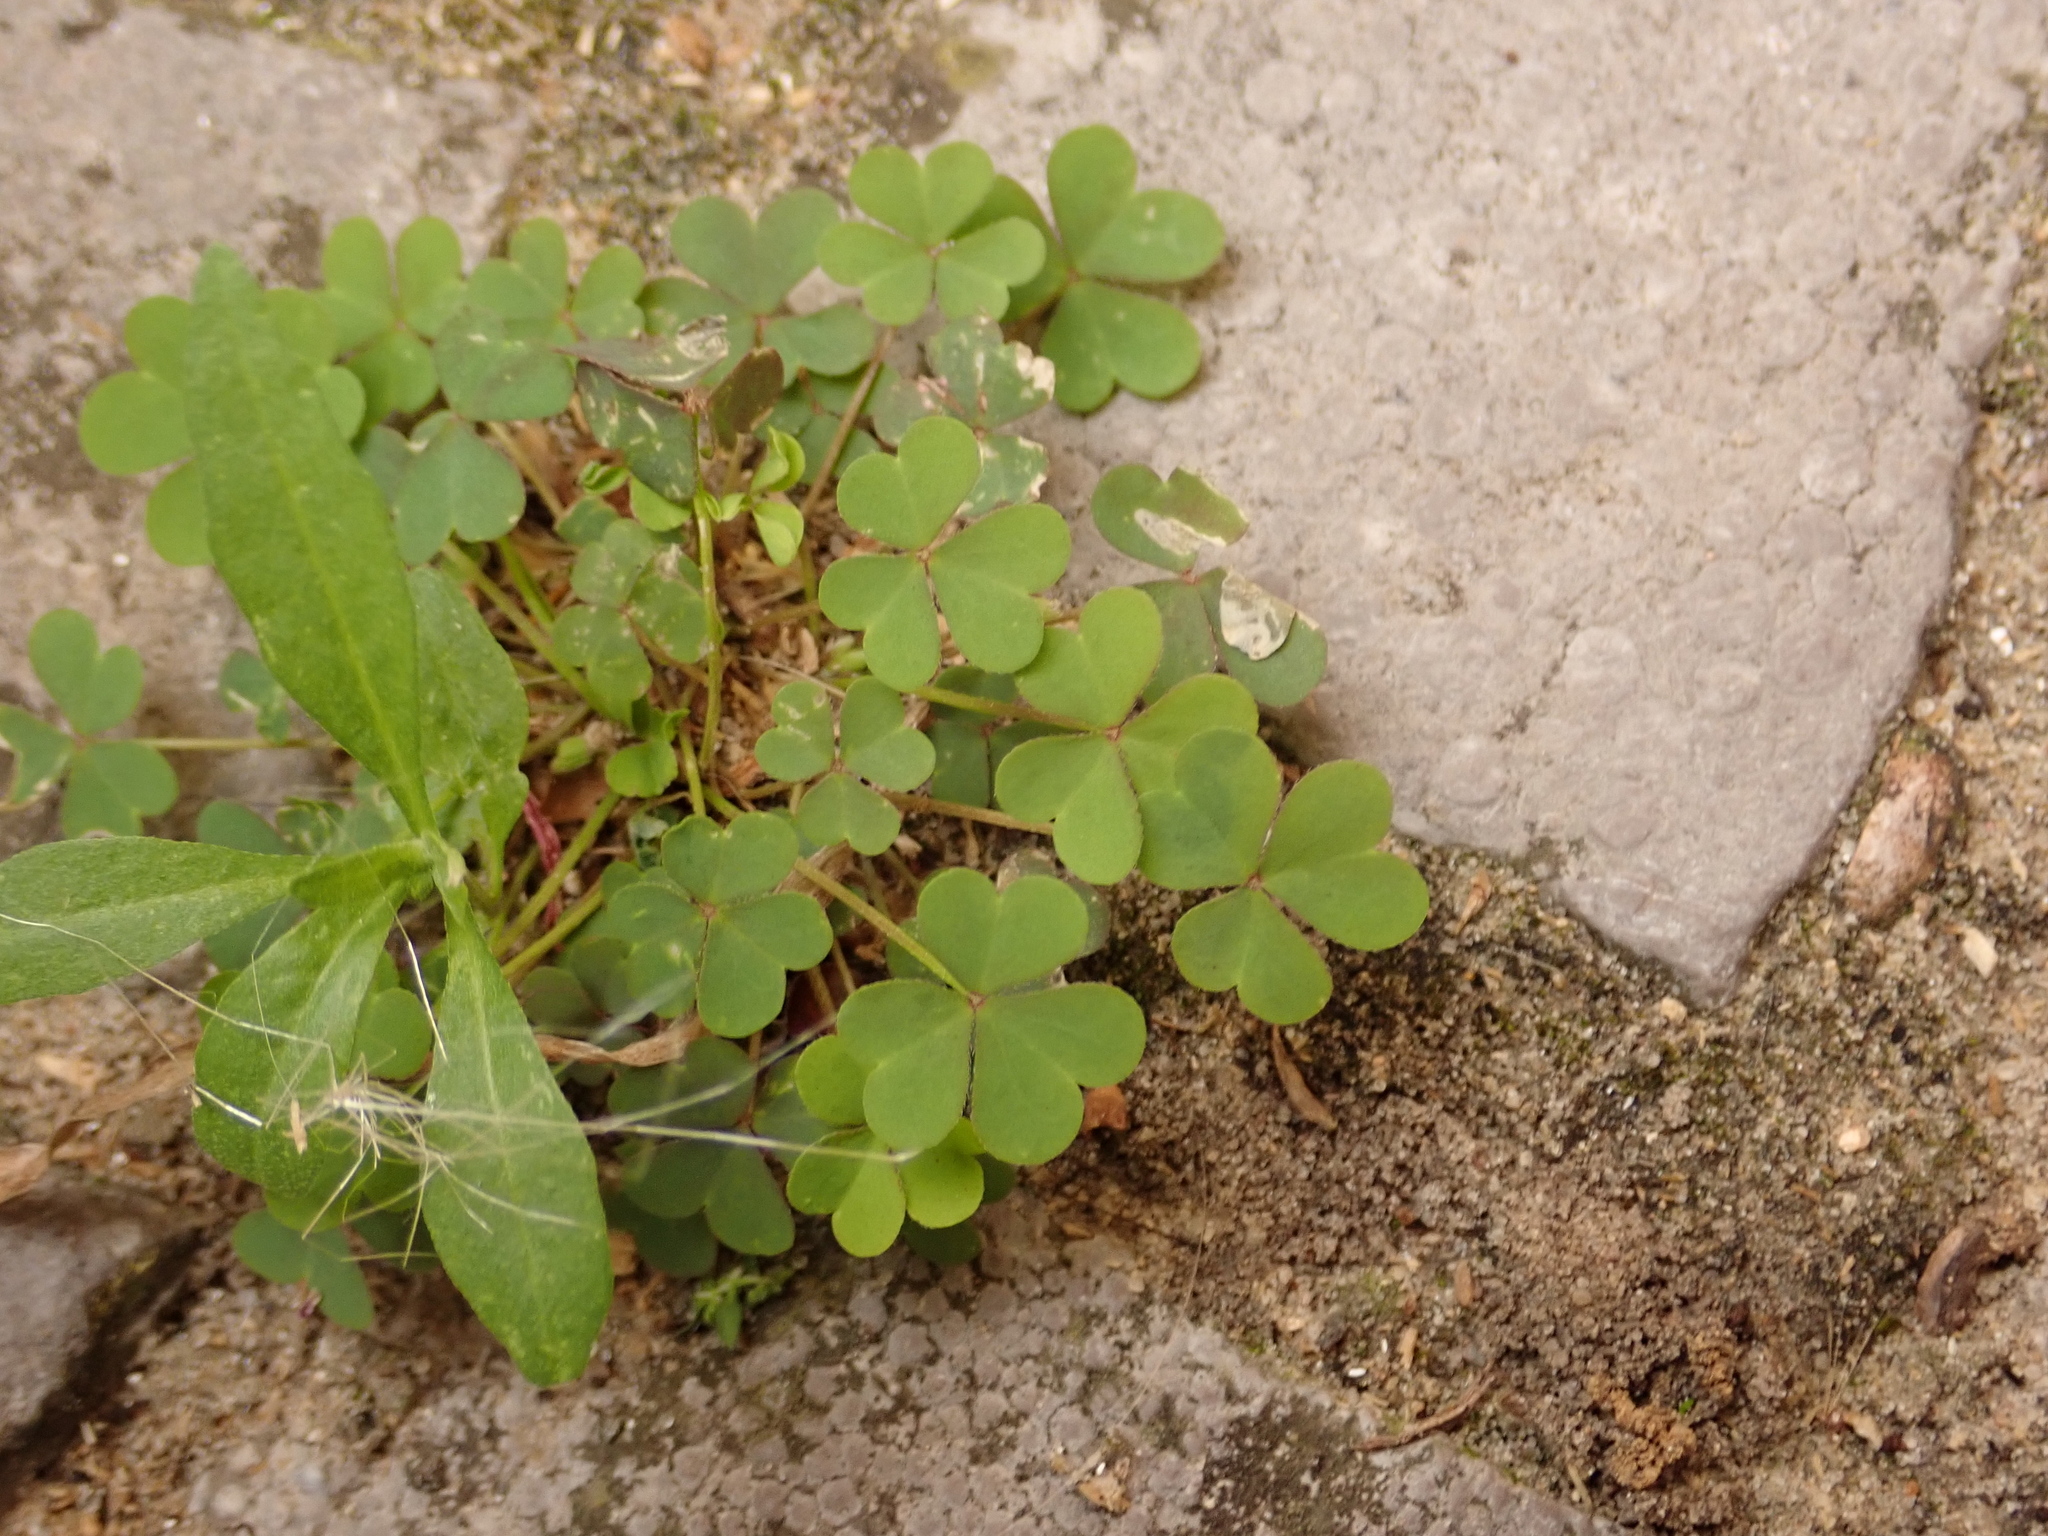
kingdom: Plantae
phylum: Tracheophyta
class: Magnoliopsida
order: Oxalidales
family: Oxalidaceae
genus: Oxalis
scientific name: Oxalis corniculata
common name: Procumbent yellow-sorrel
